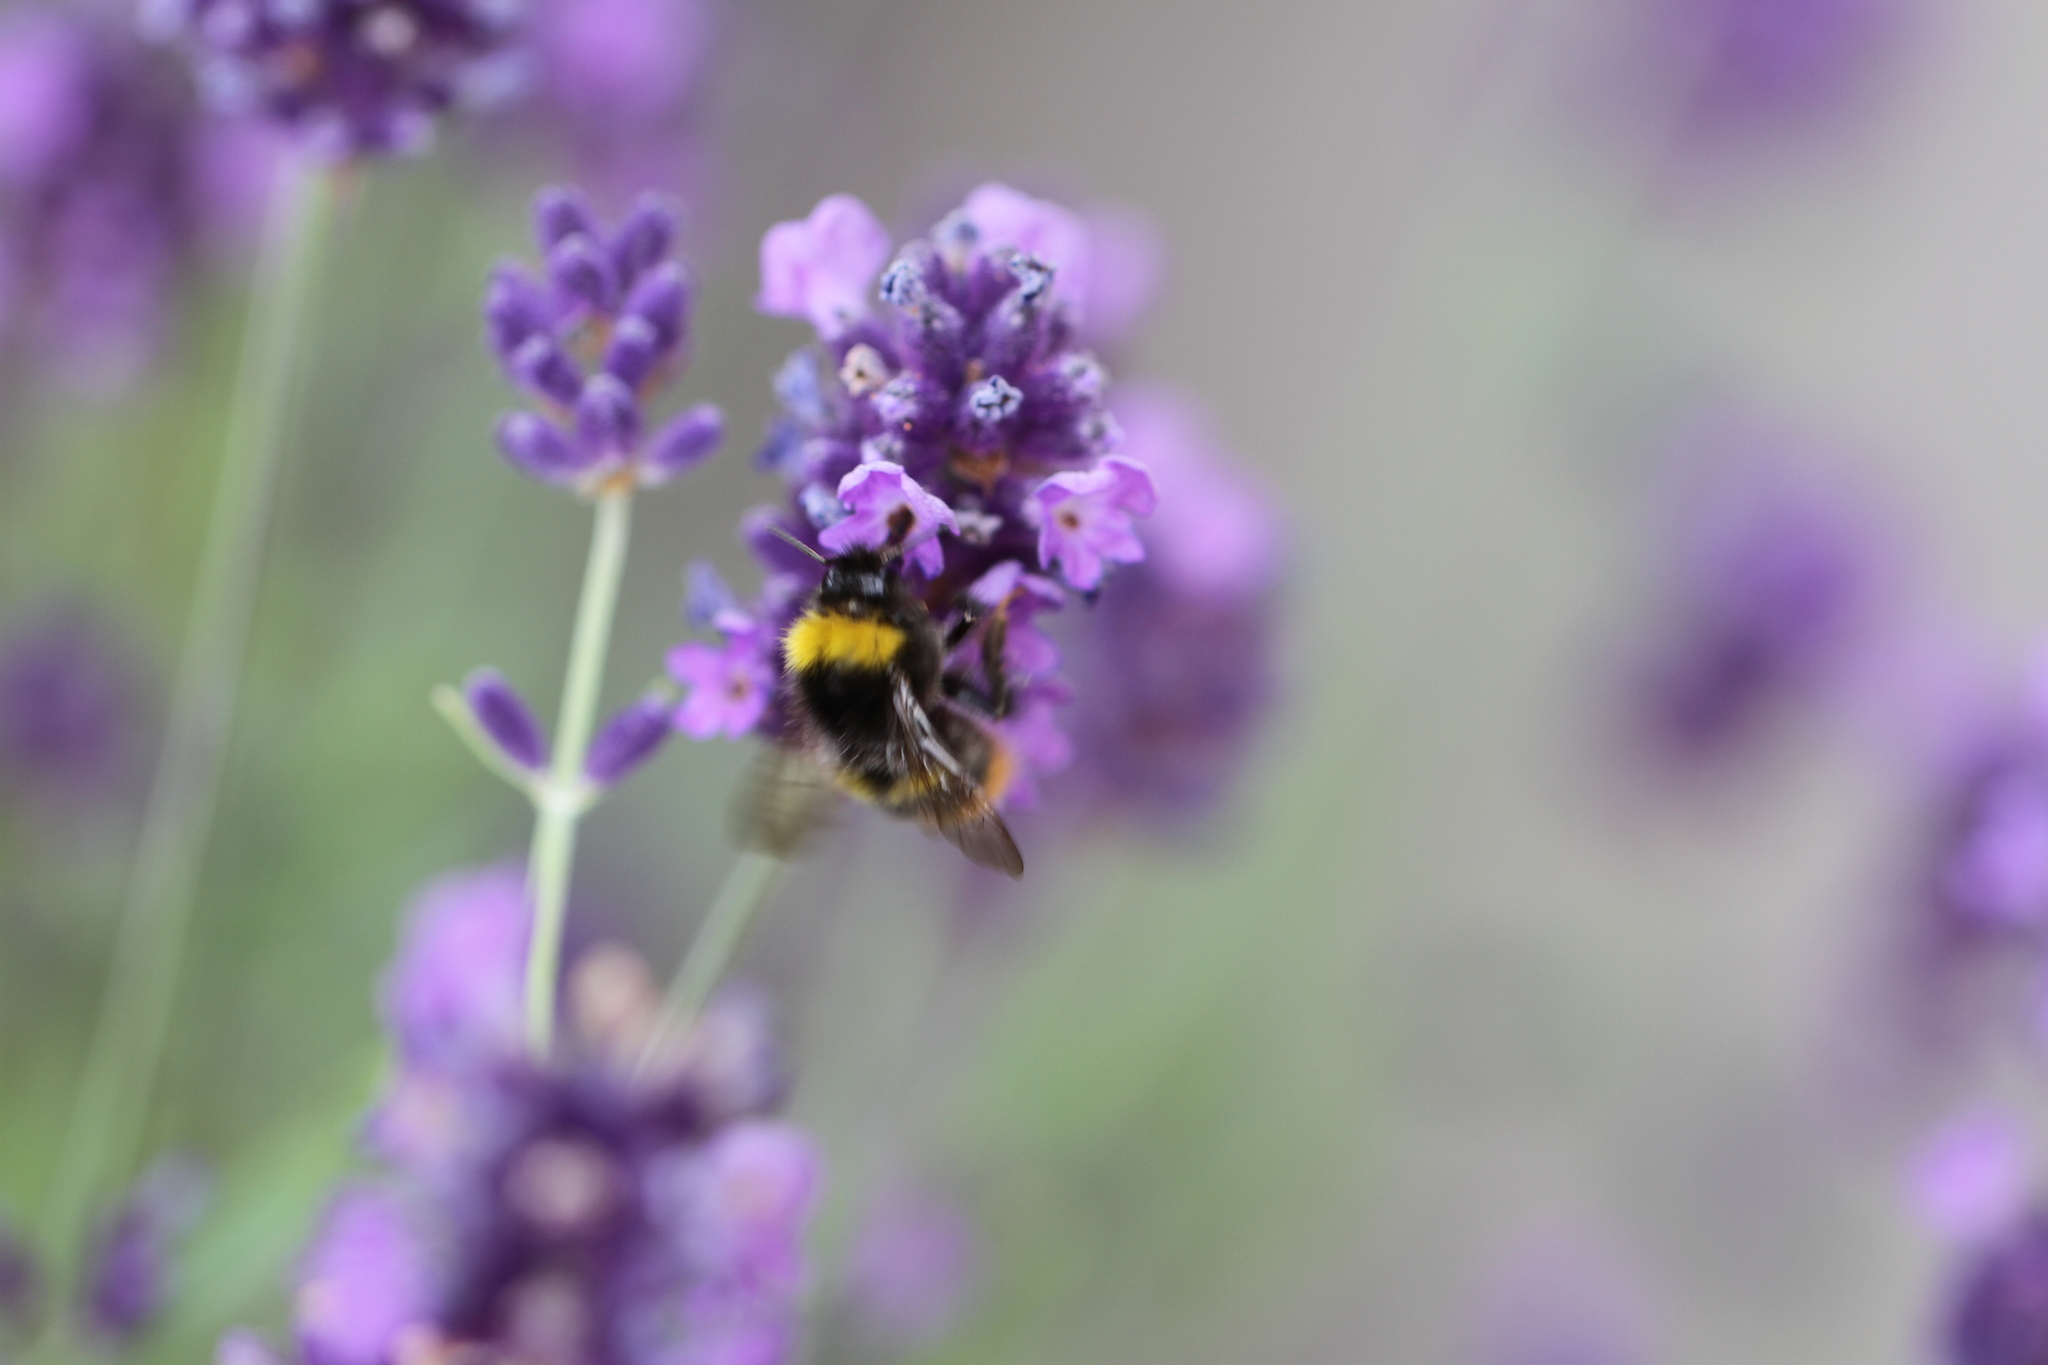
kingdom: Animalia
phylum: Arthropoda
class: Insecta
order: Hymenoptera
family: Apidae
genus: Bombus
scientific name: Bombus pratorum
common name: Early humble-bee
